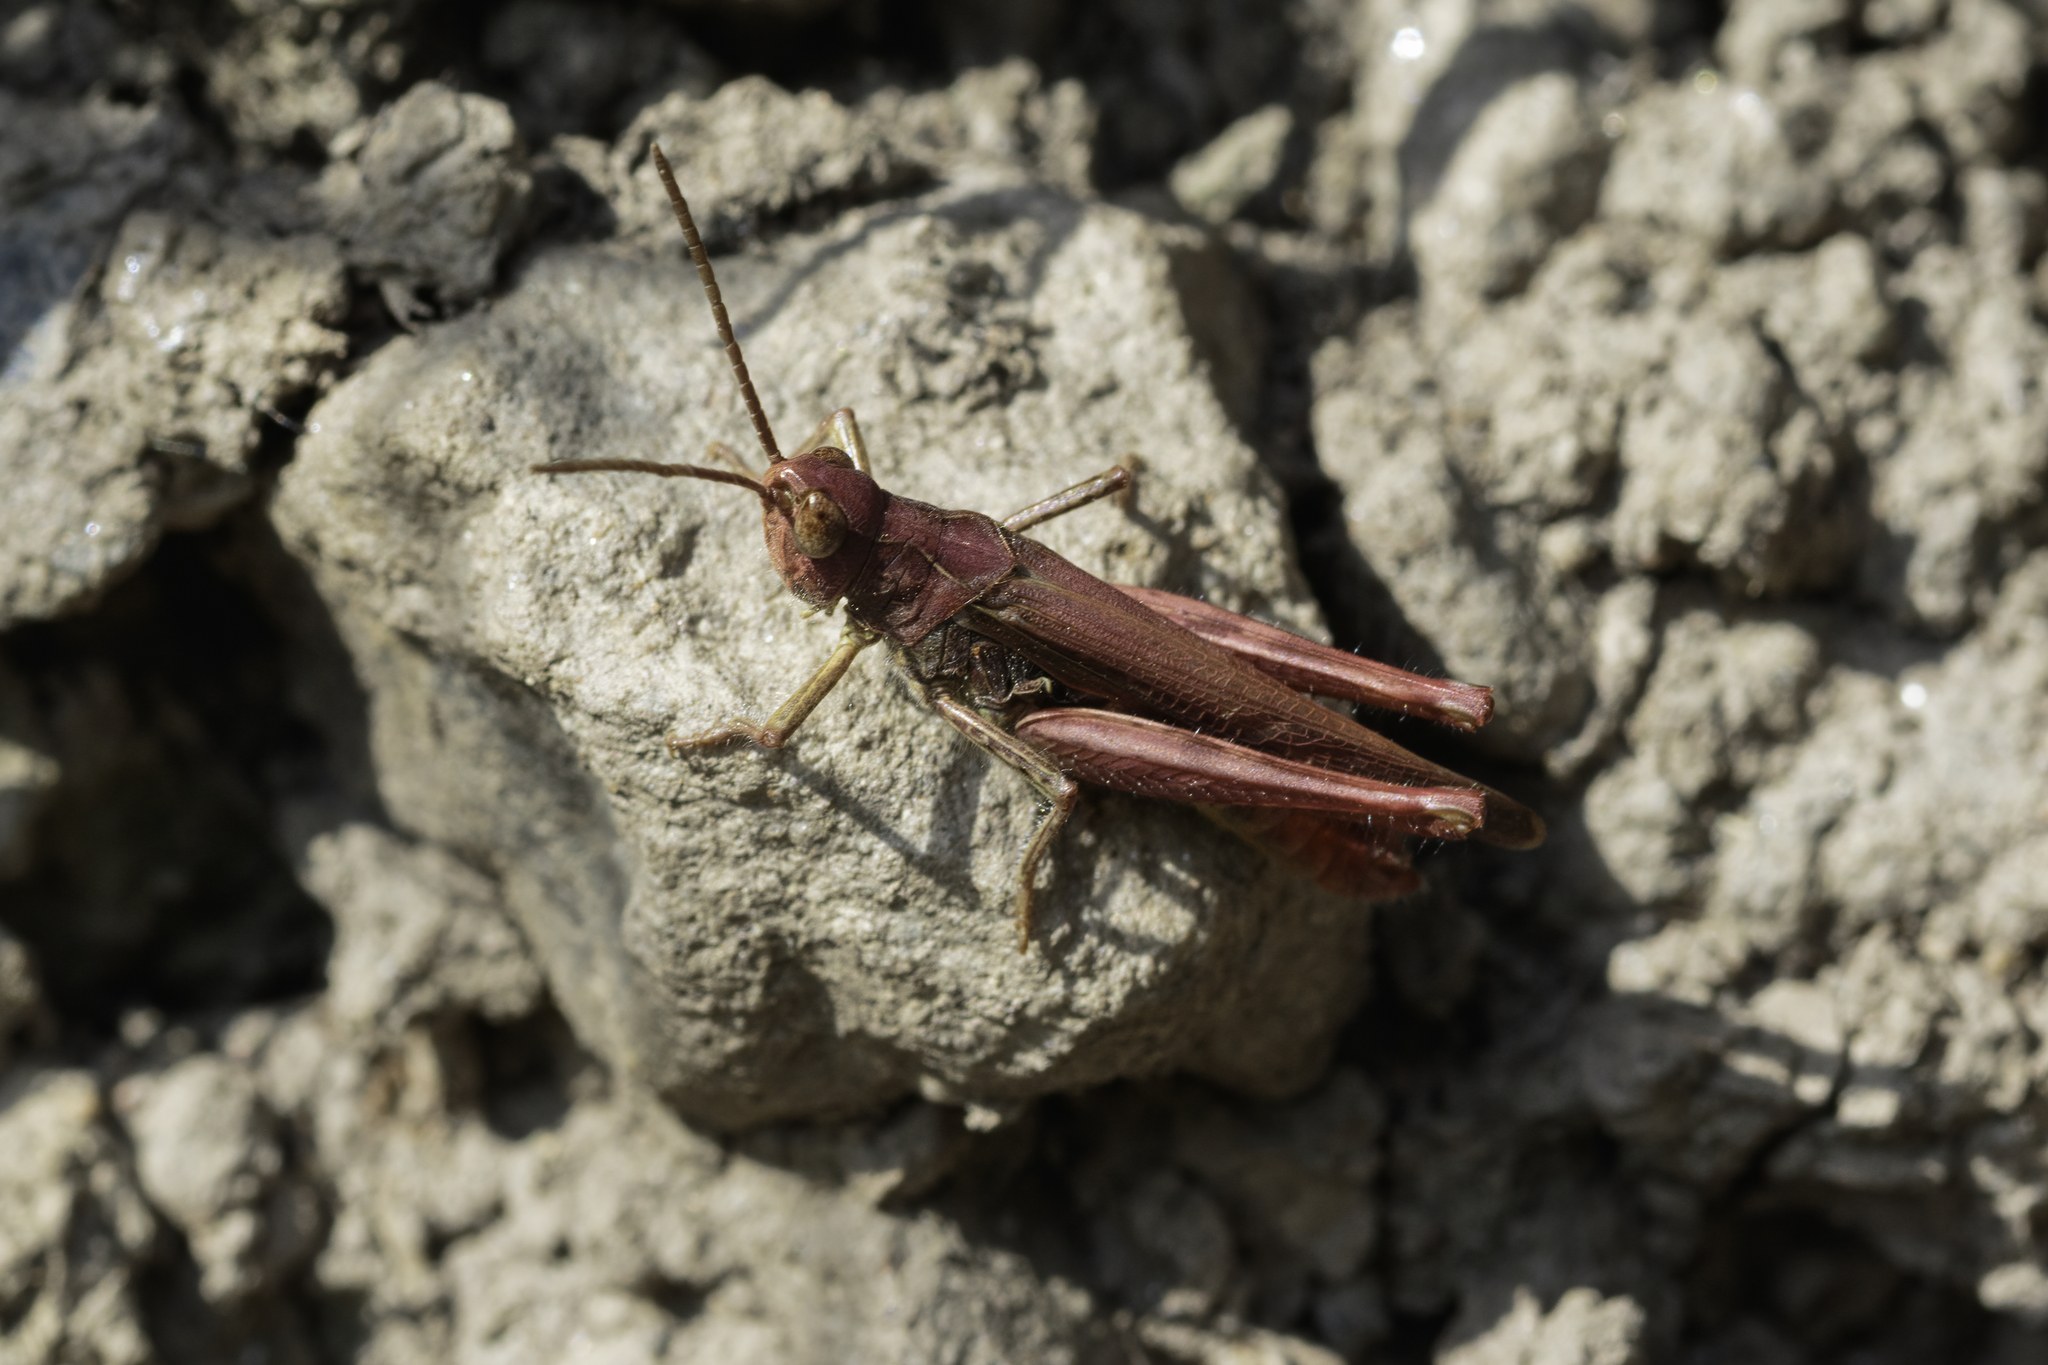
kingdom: Animalia
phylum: Arthropoda
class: Insecta
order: Orthoptera
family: Acrididae
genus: Chorthippus
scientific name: Chorthippus brunneus
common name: Field grasshopper
